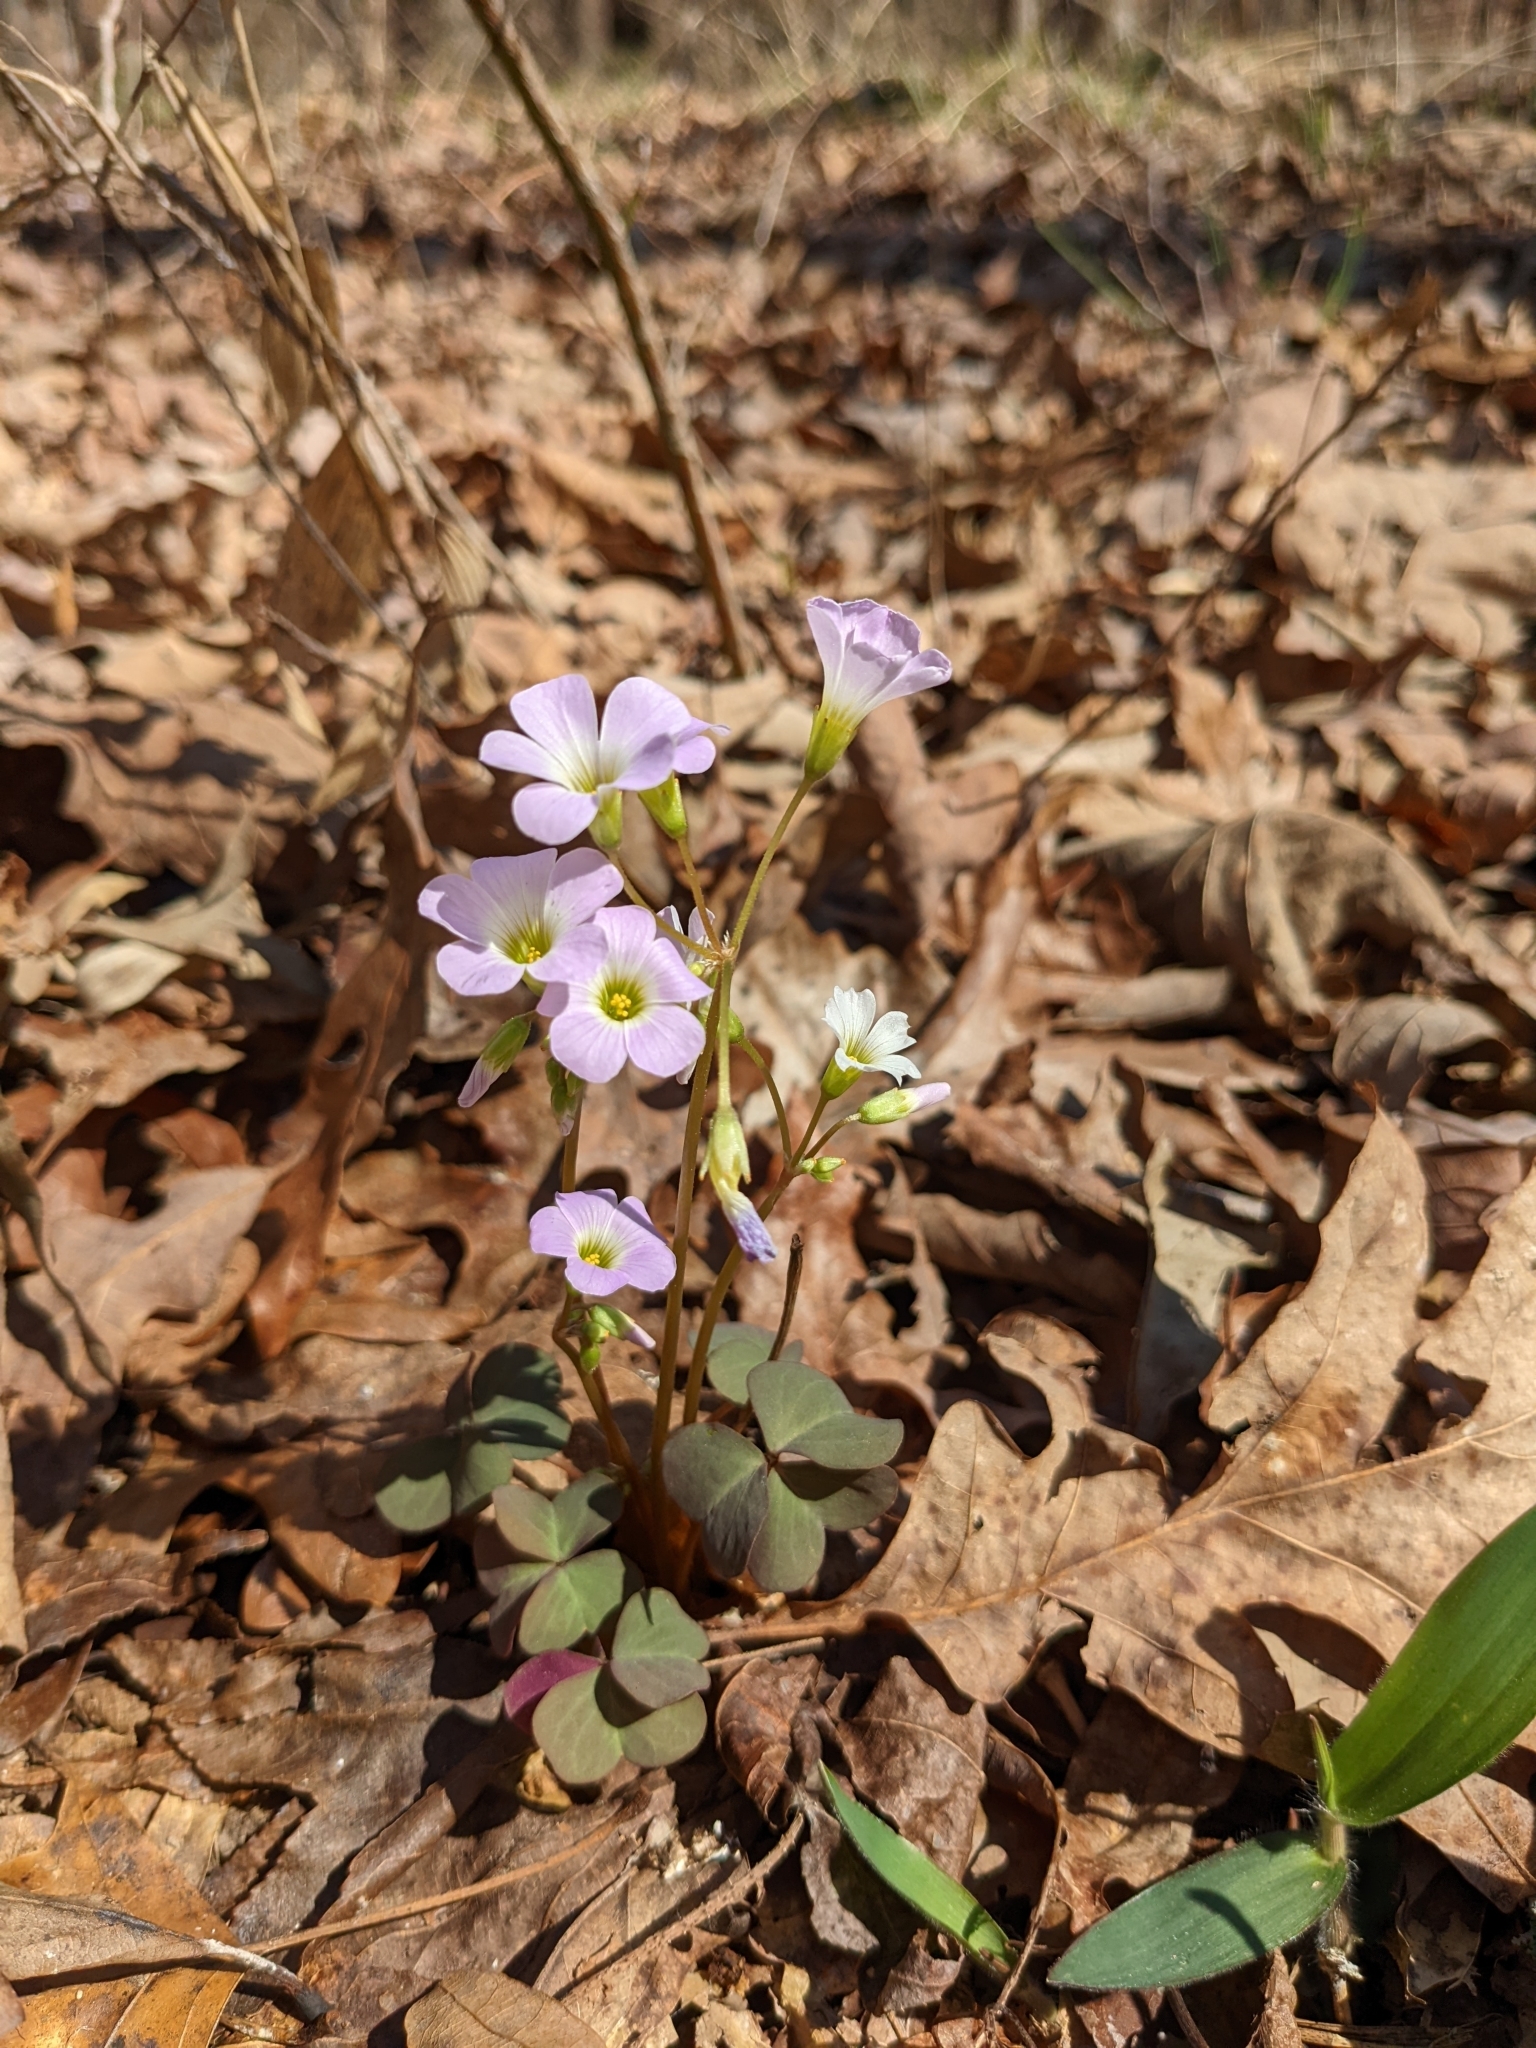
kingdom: Plantae
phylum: Tracheophyta
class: Magnoliopsida
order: Oxalidales
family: Oxalidaceae
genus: Oxalis
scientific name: Oxalis violacea
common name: Violet wood-sorrel
